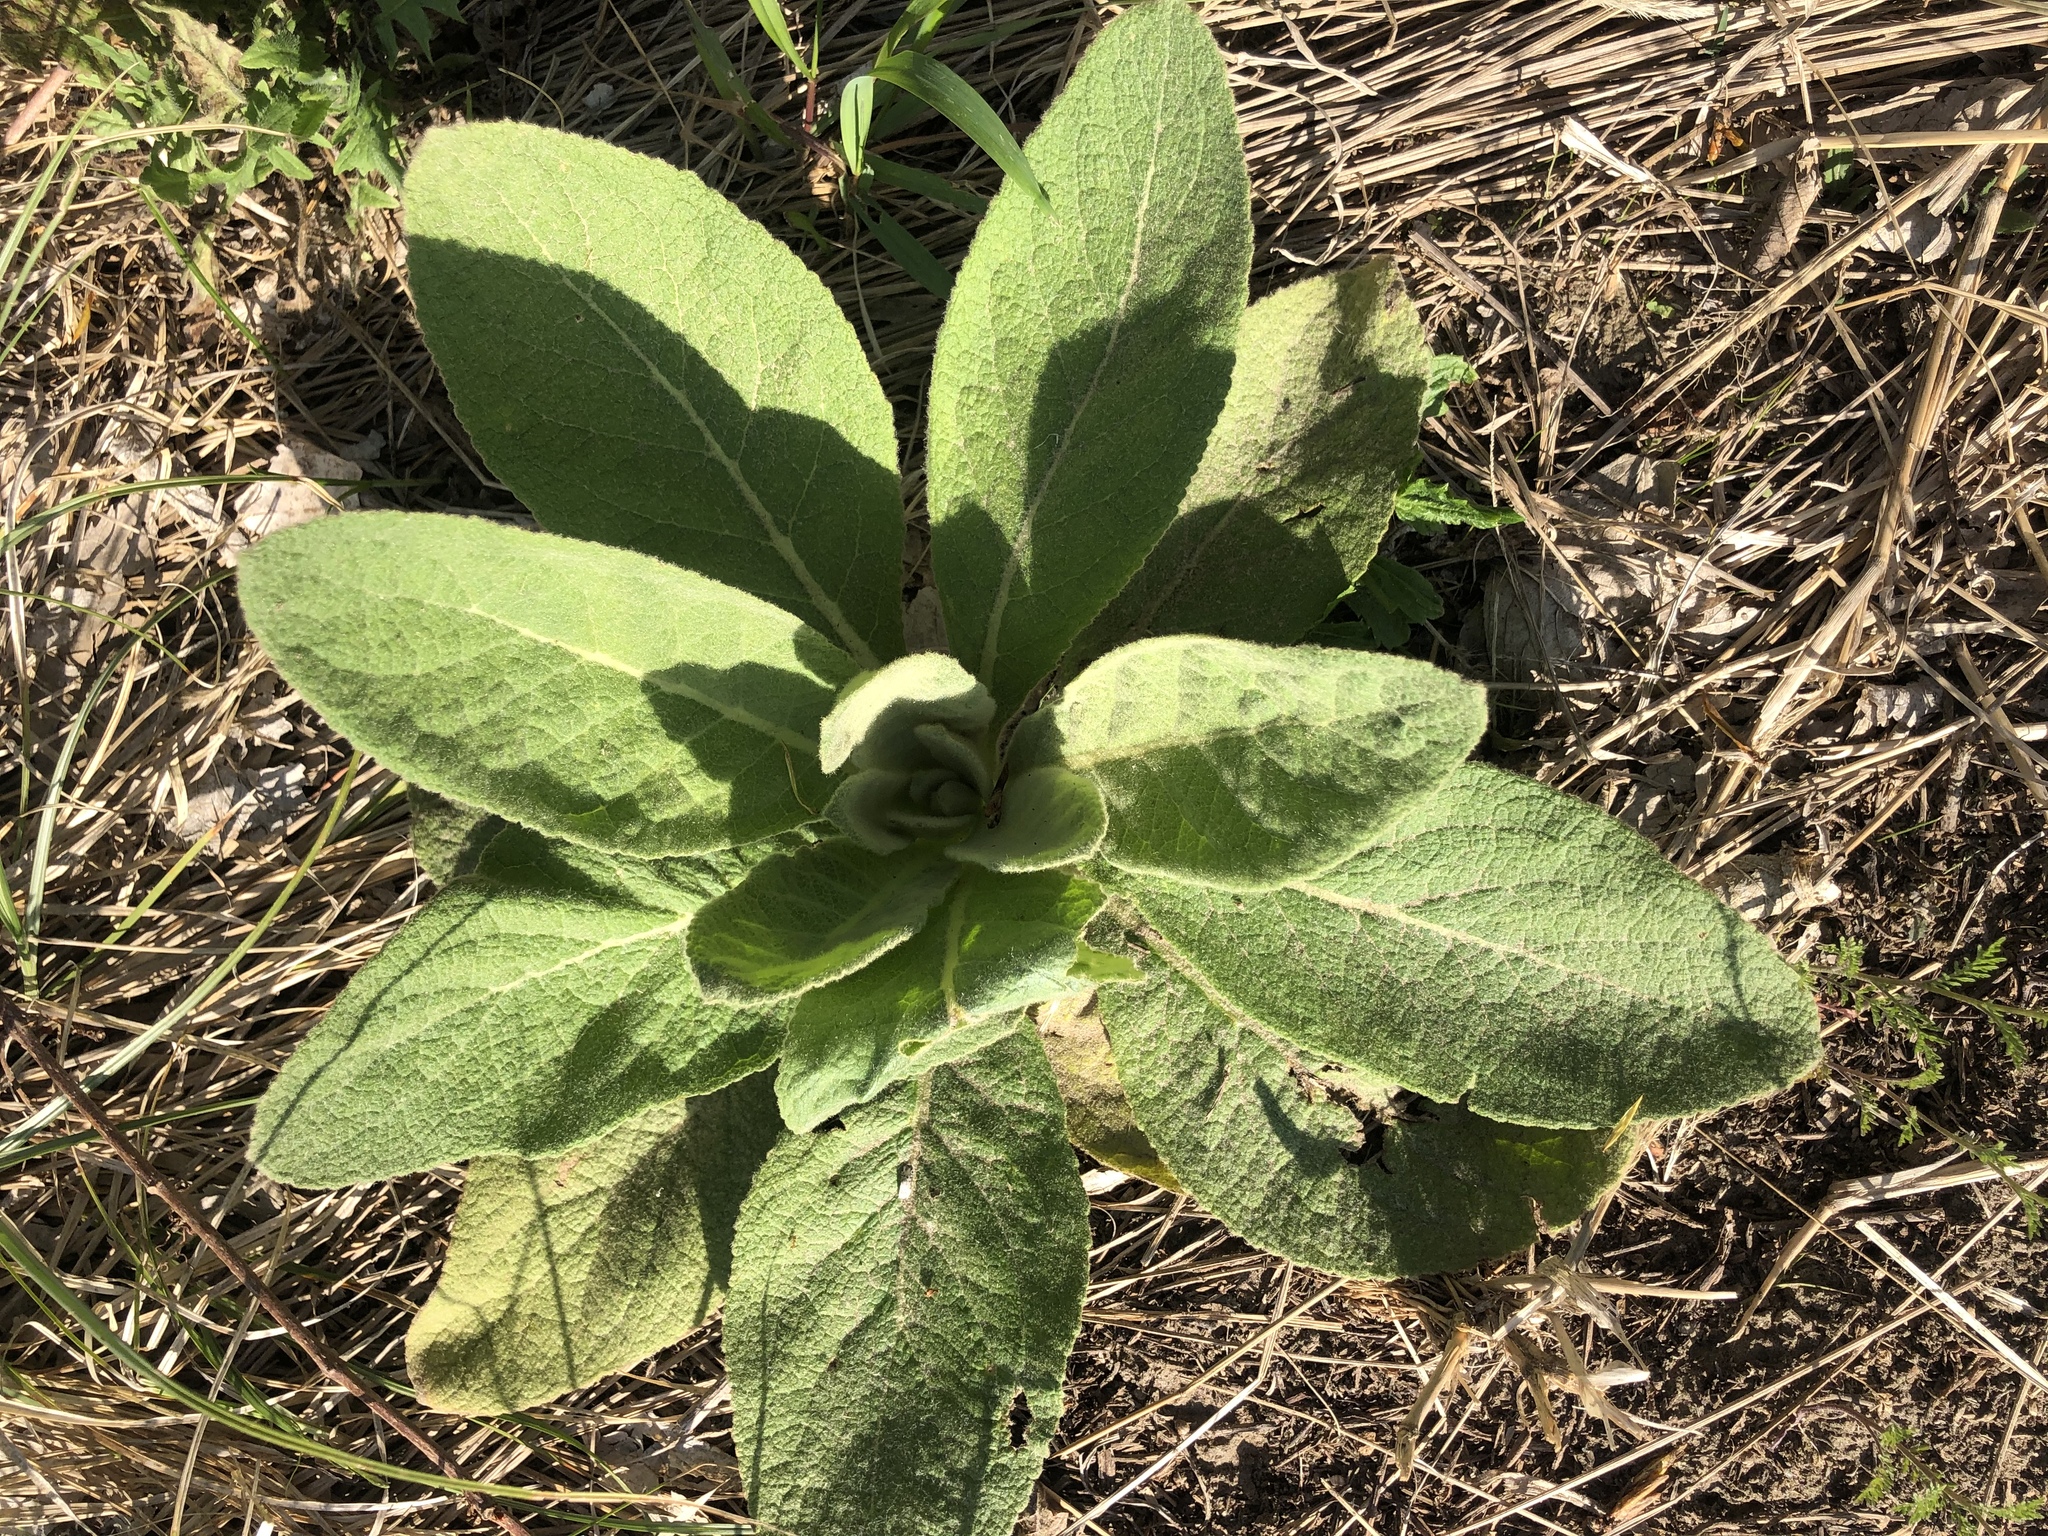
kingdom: Plantae
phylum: Tracheophyta
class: Magnoliopsida
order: Lamiales
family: Scrophulariaceae
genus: Verbascum
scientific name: Verbascum thapsus
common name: Common mullein
